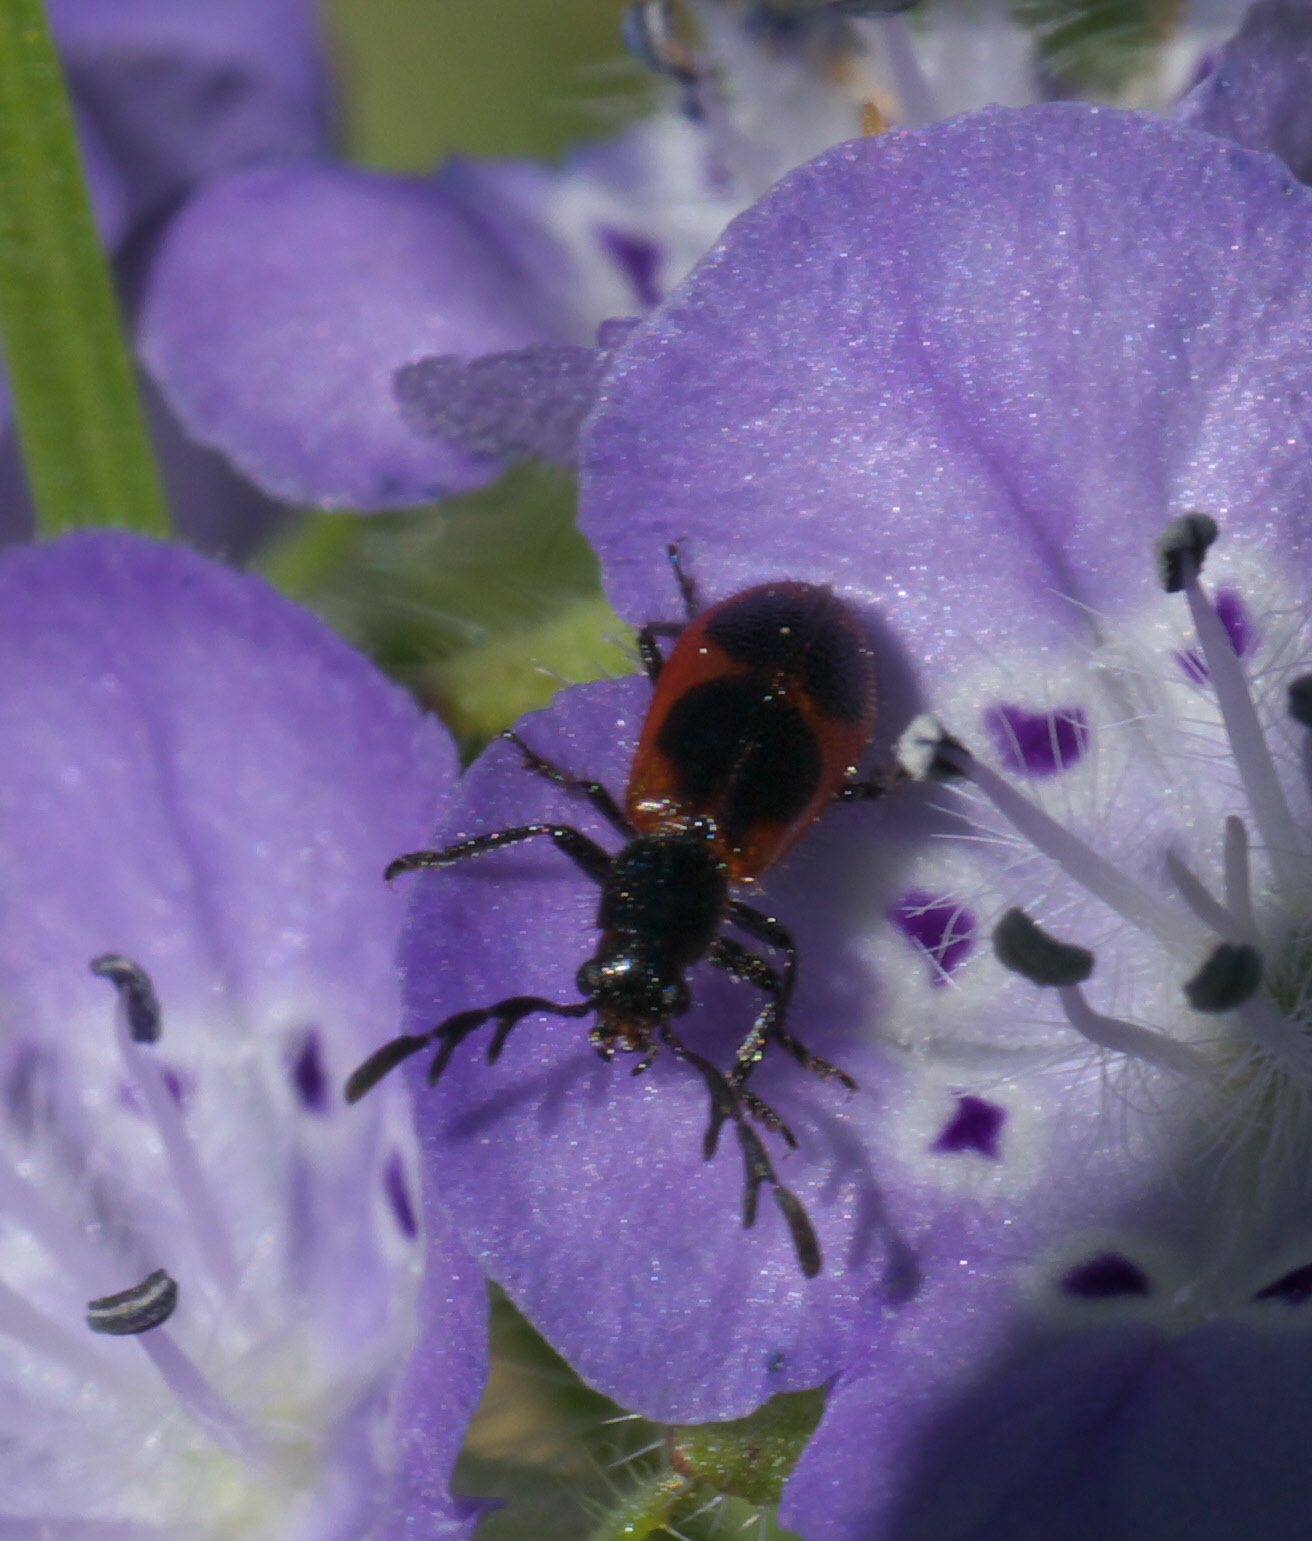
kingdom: Animalia
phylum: Arthropoda
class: Insecta
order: Coleoptera
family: Cleridae
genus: Pelonides
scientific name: Pelonides quadripunctatus
